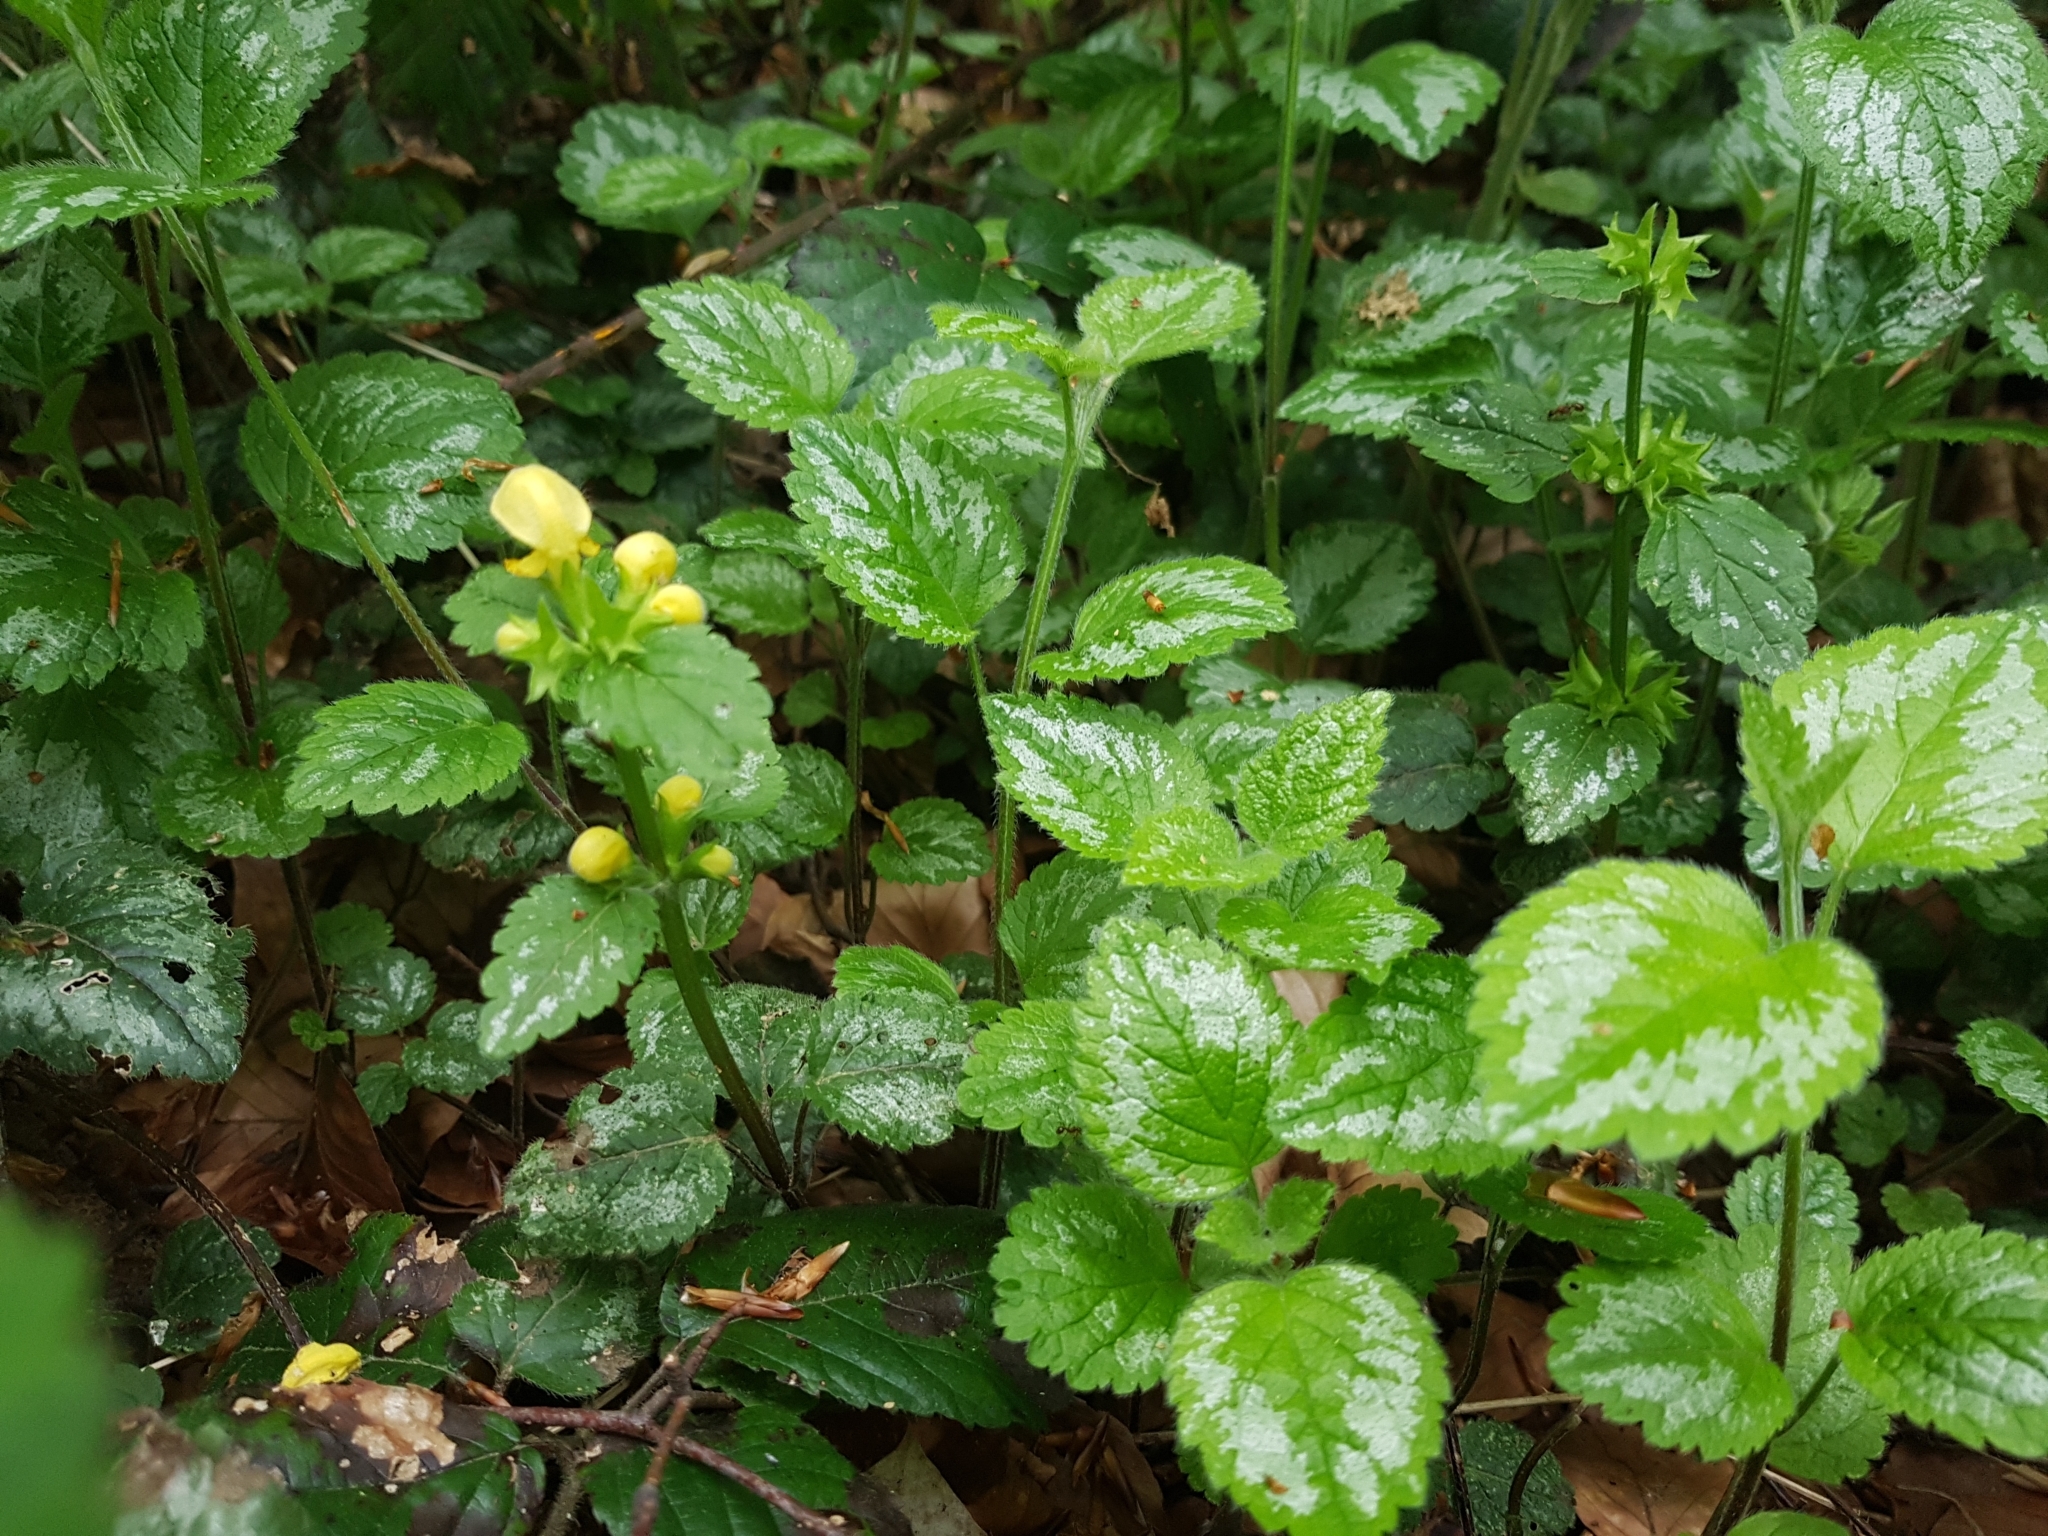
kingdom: Plantae
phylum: Tracheophyta
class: Magnoliopsida
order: Lamiales
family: Lamiaceae
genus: Lamium
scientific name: Lamium galeobdolon
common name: Yellow archangel
